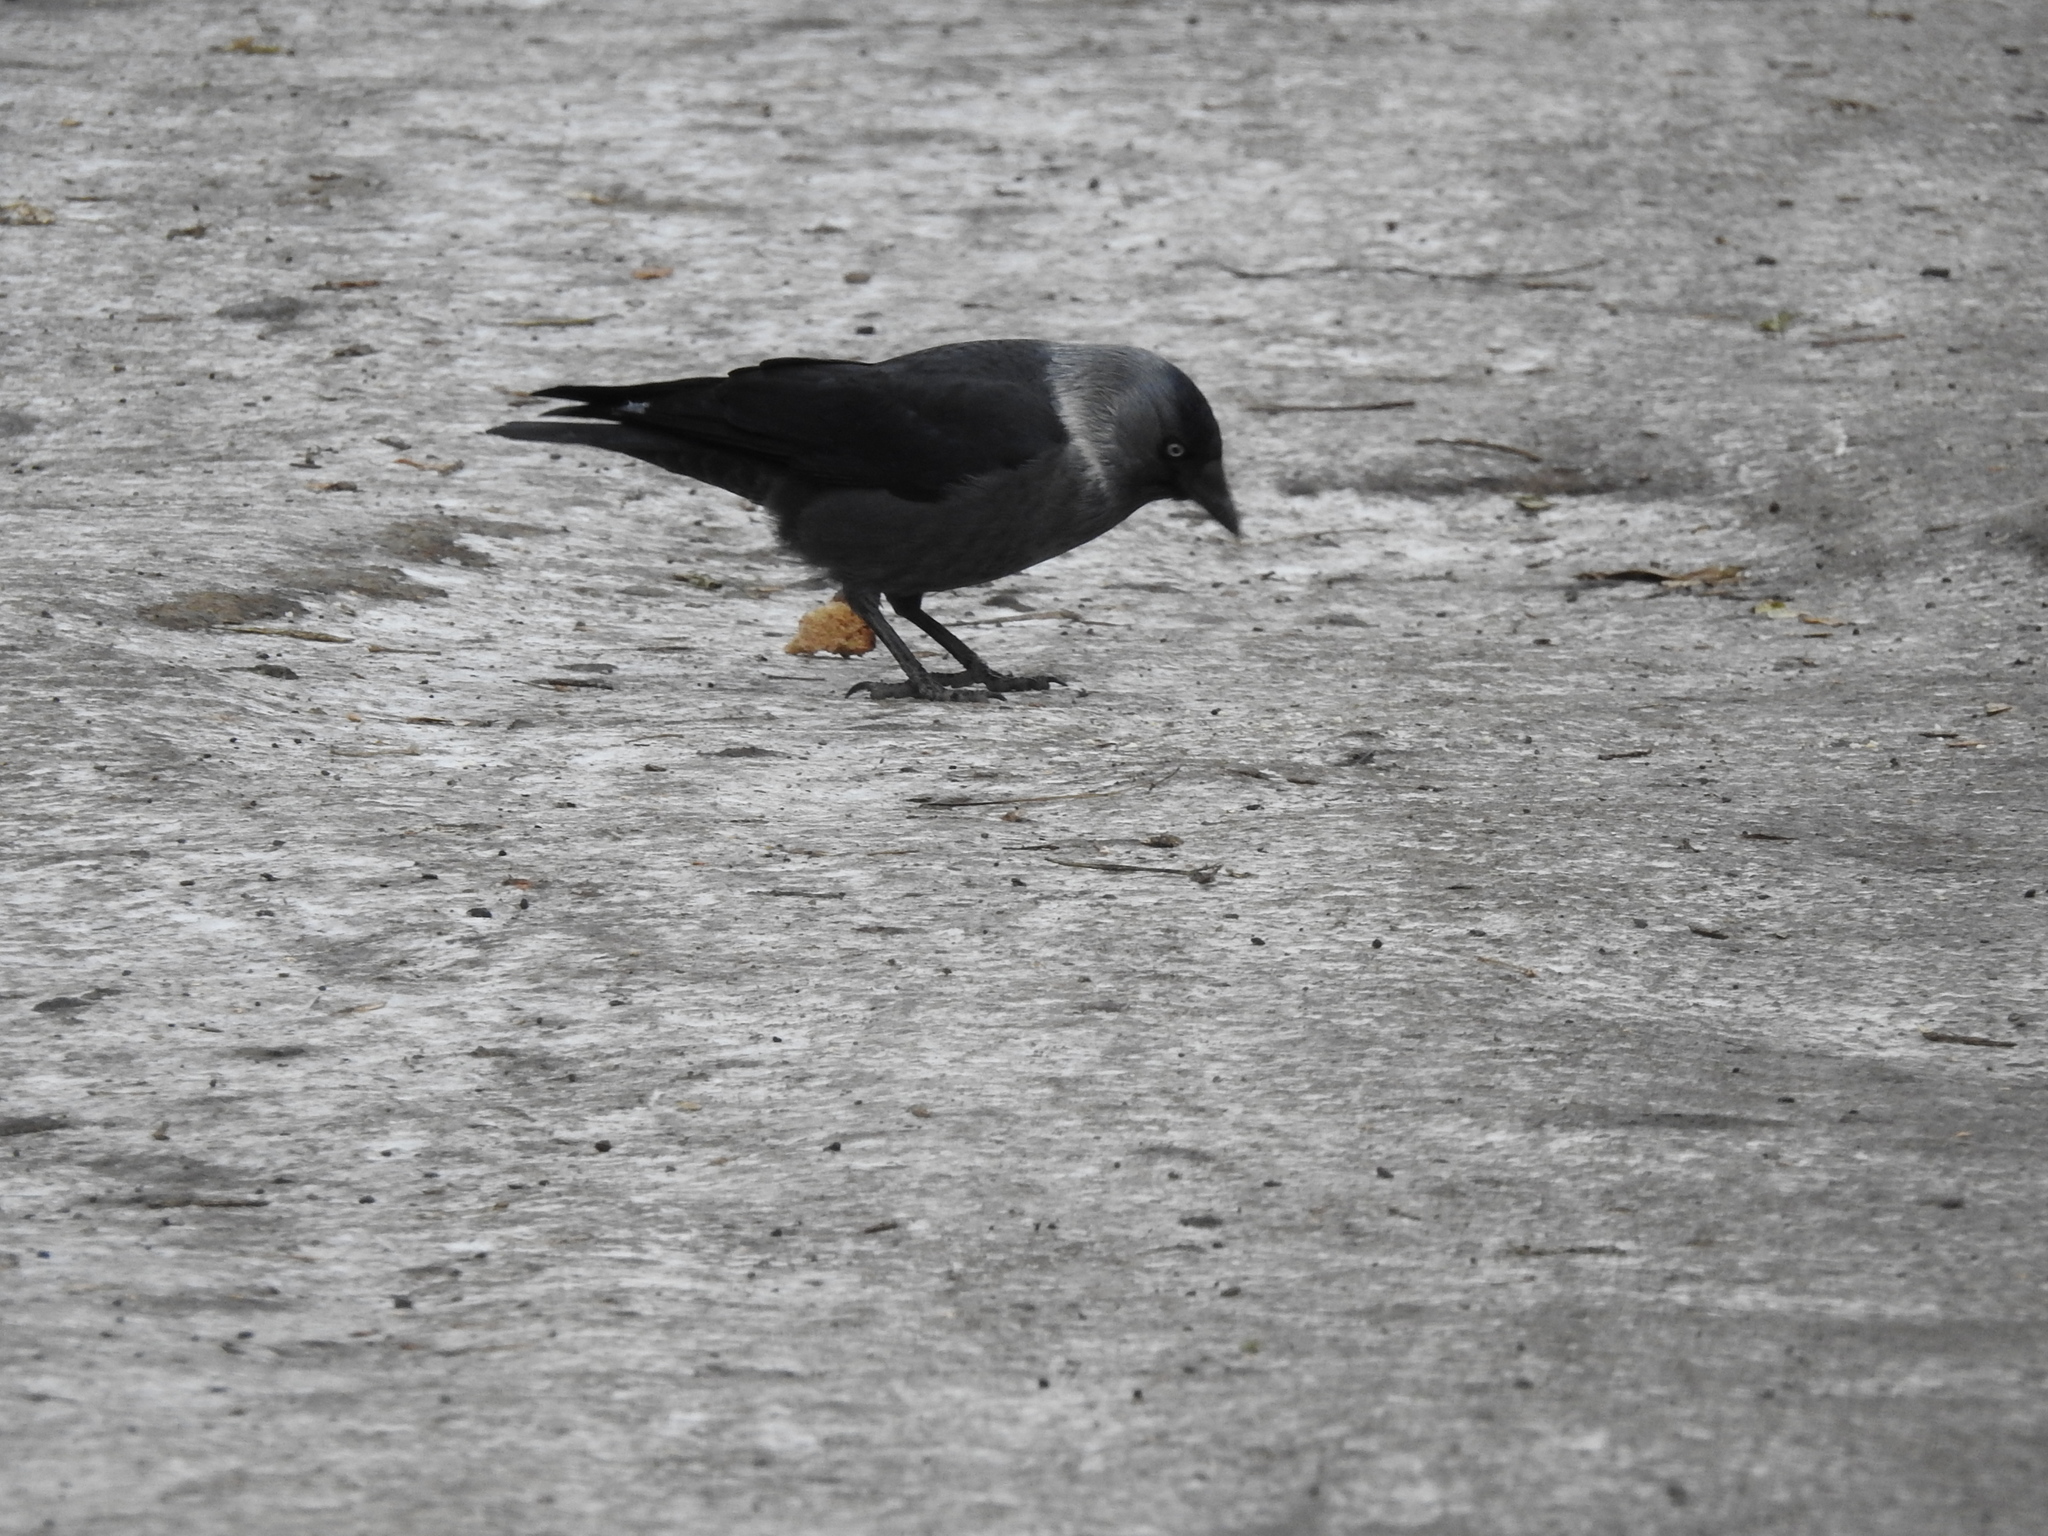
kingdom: Animalia
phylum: Chordata
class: Aves
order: Passeriformes
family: Corvidae
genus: Coloeus
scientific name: Coloeus monedula
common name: Western jackdaw
